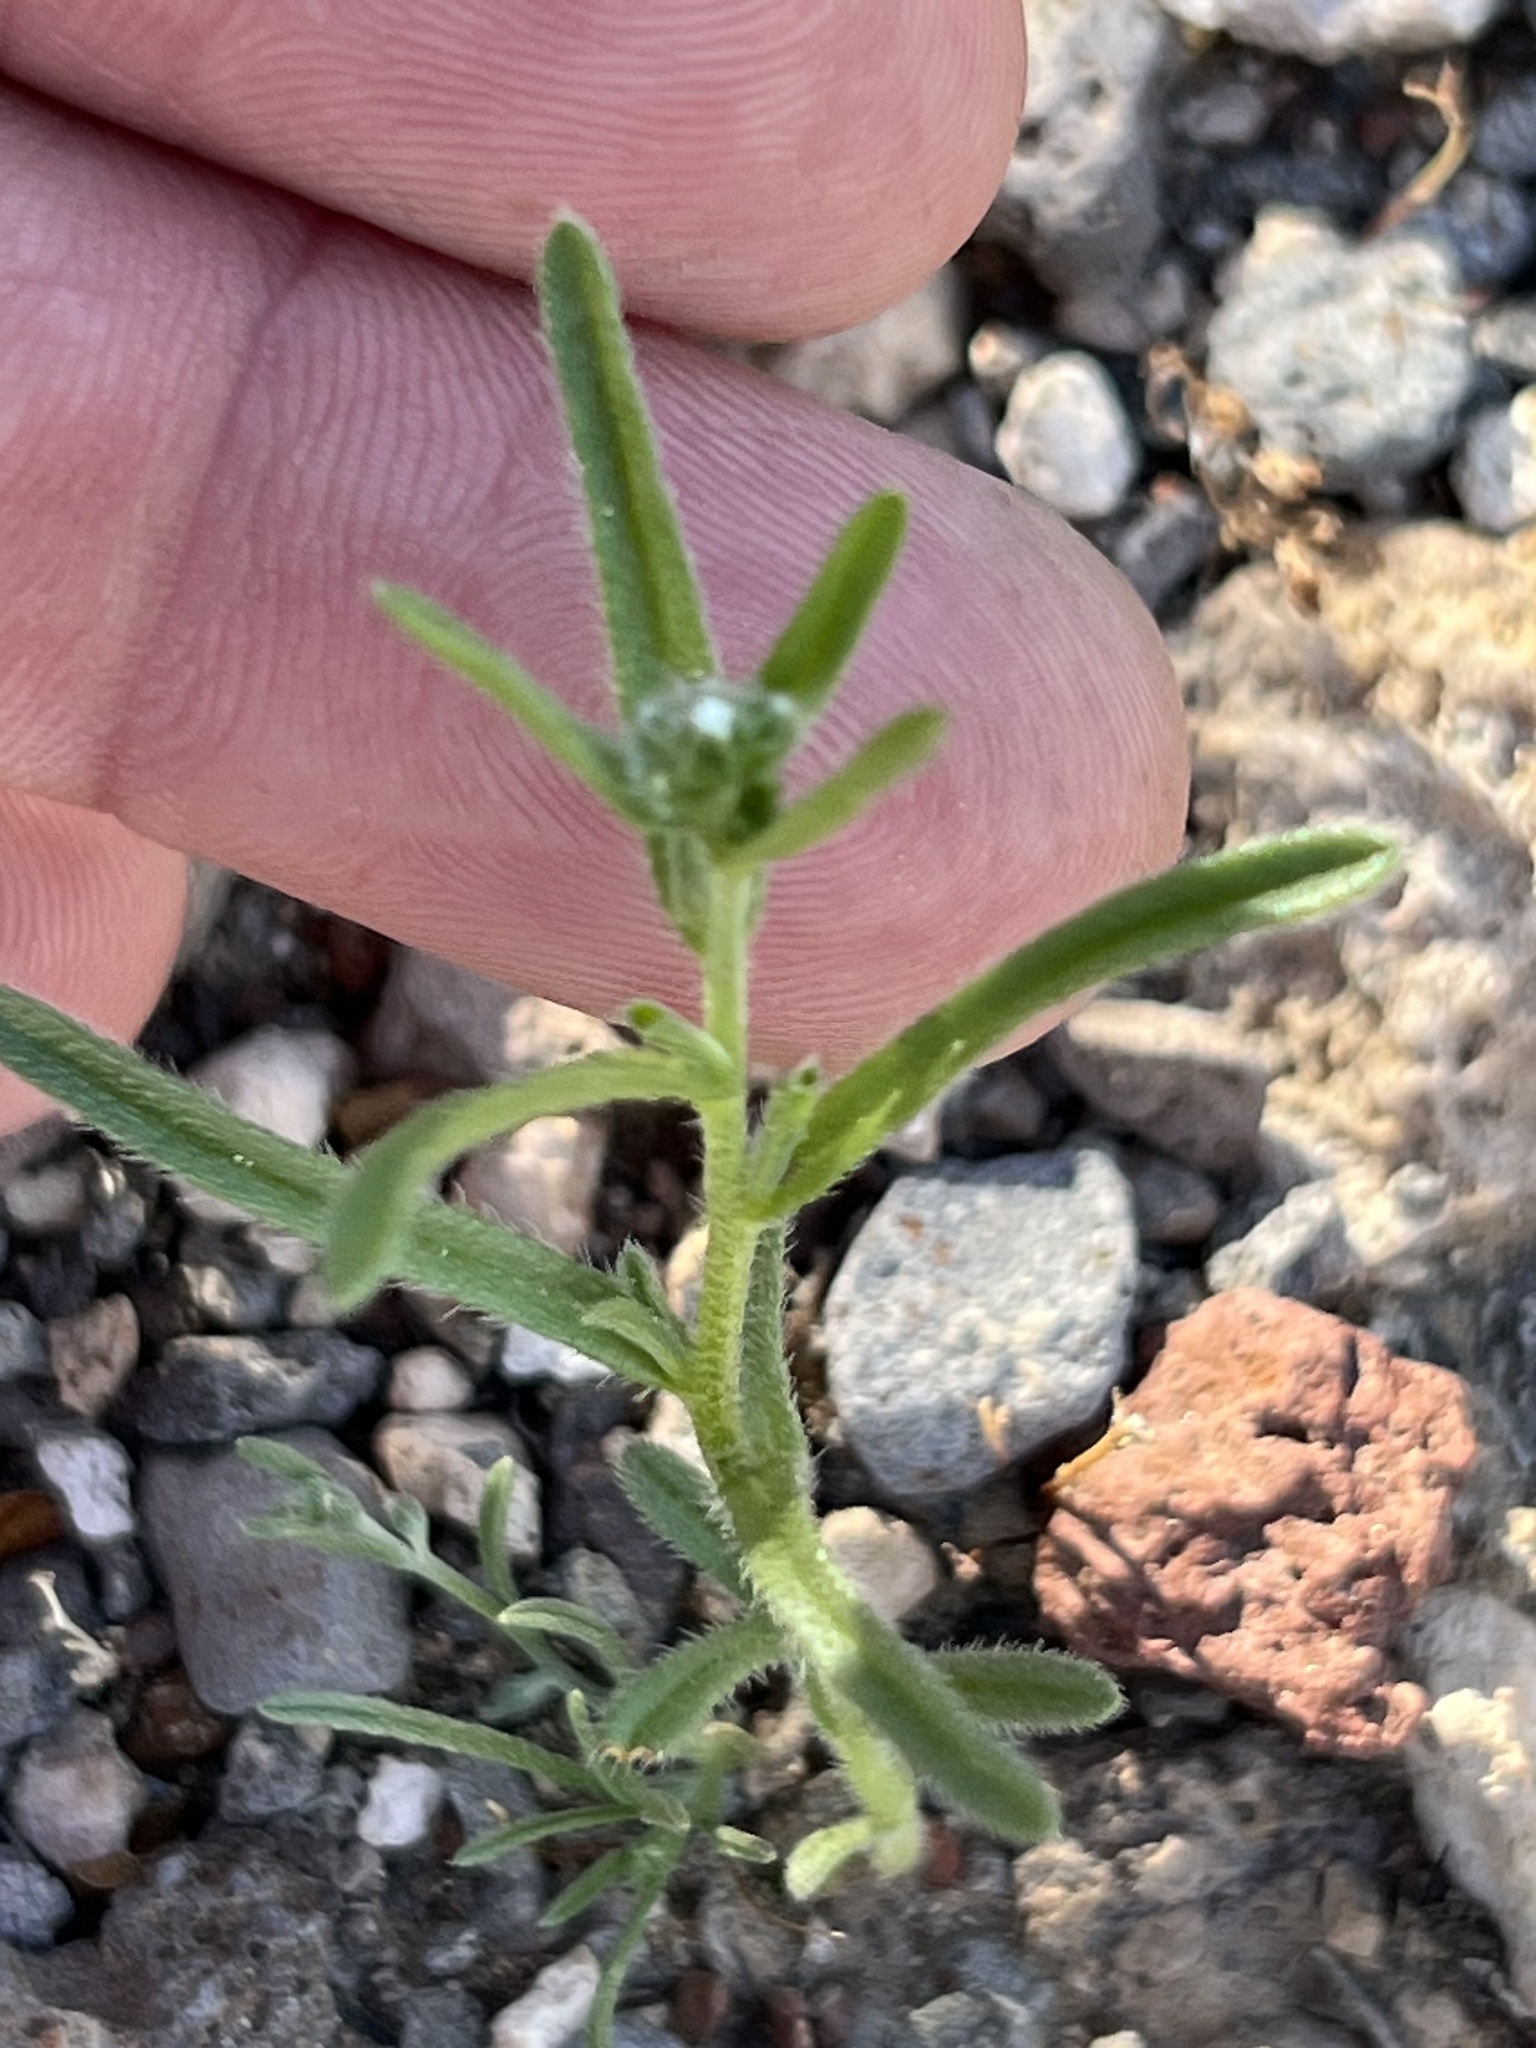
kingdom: Plantae
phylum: Tracheophyta
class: Magnoliopsida
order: Boraginales
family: Boraginaceae
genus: Cryptantha
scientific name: Cryptantha pterocarya
